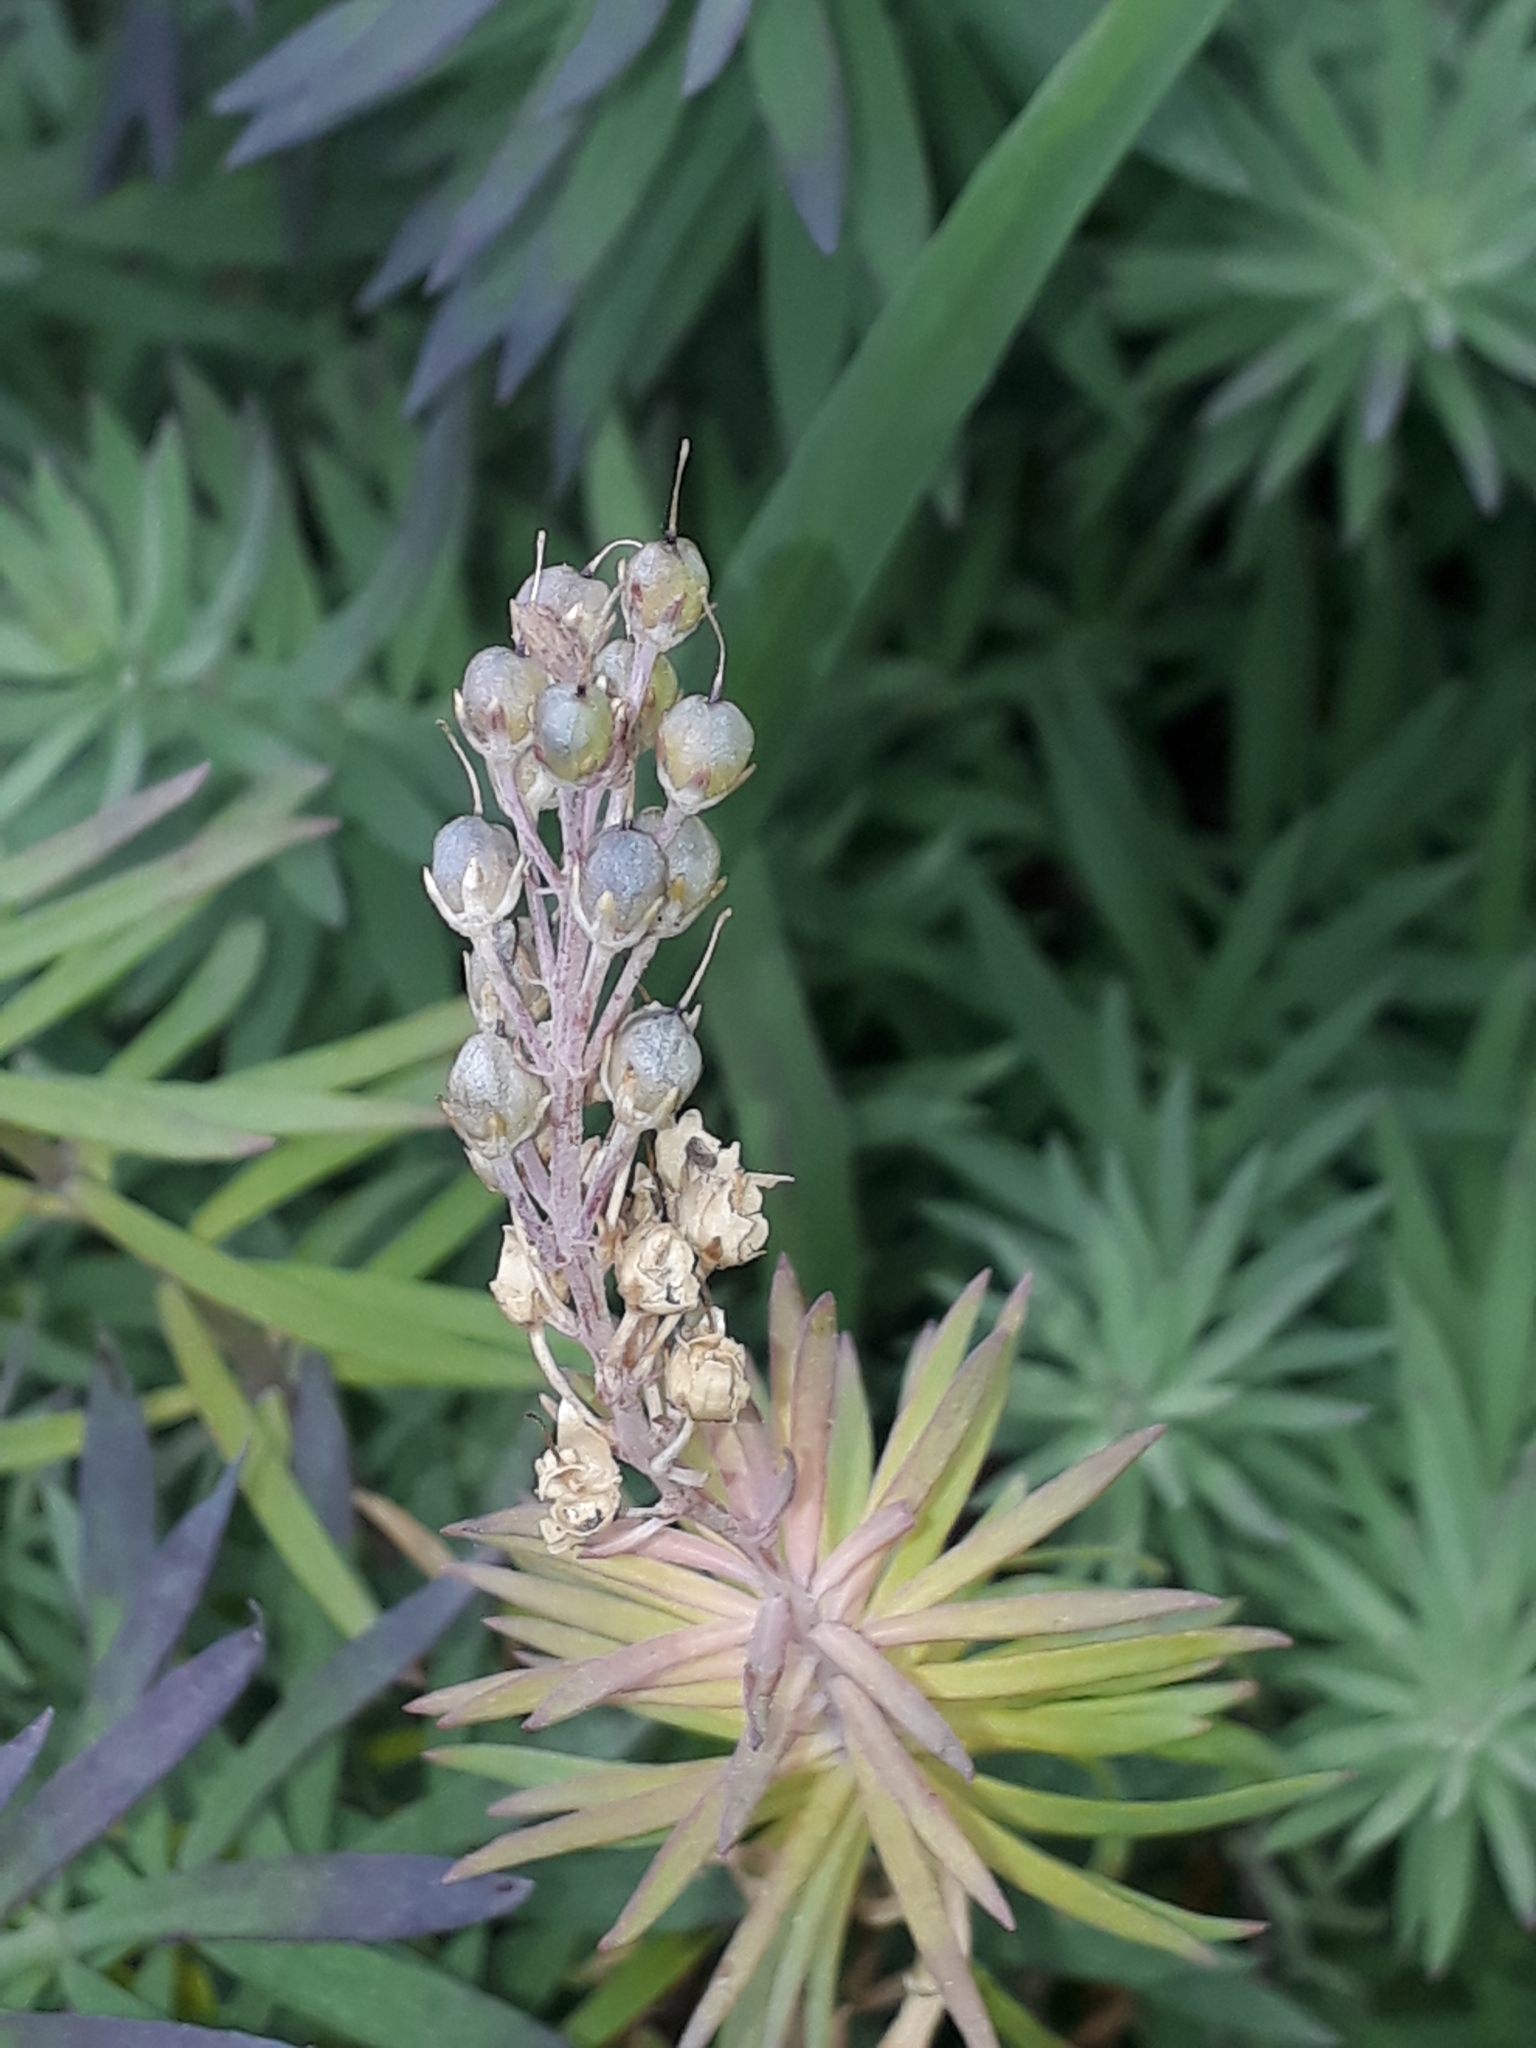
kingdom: Plantae
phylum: Tracheophyta
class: Magnoliopsida
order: Lamiales
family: Plantaginaceae
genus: Linaria
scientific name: Linaria purpurea
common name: Purple toadflax
